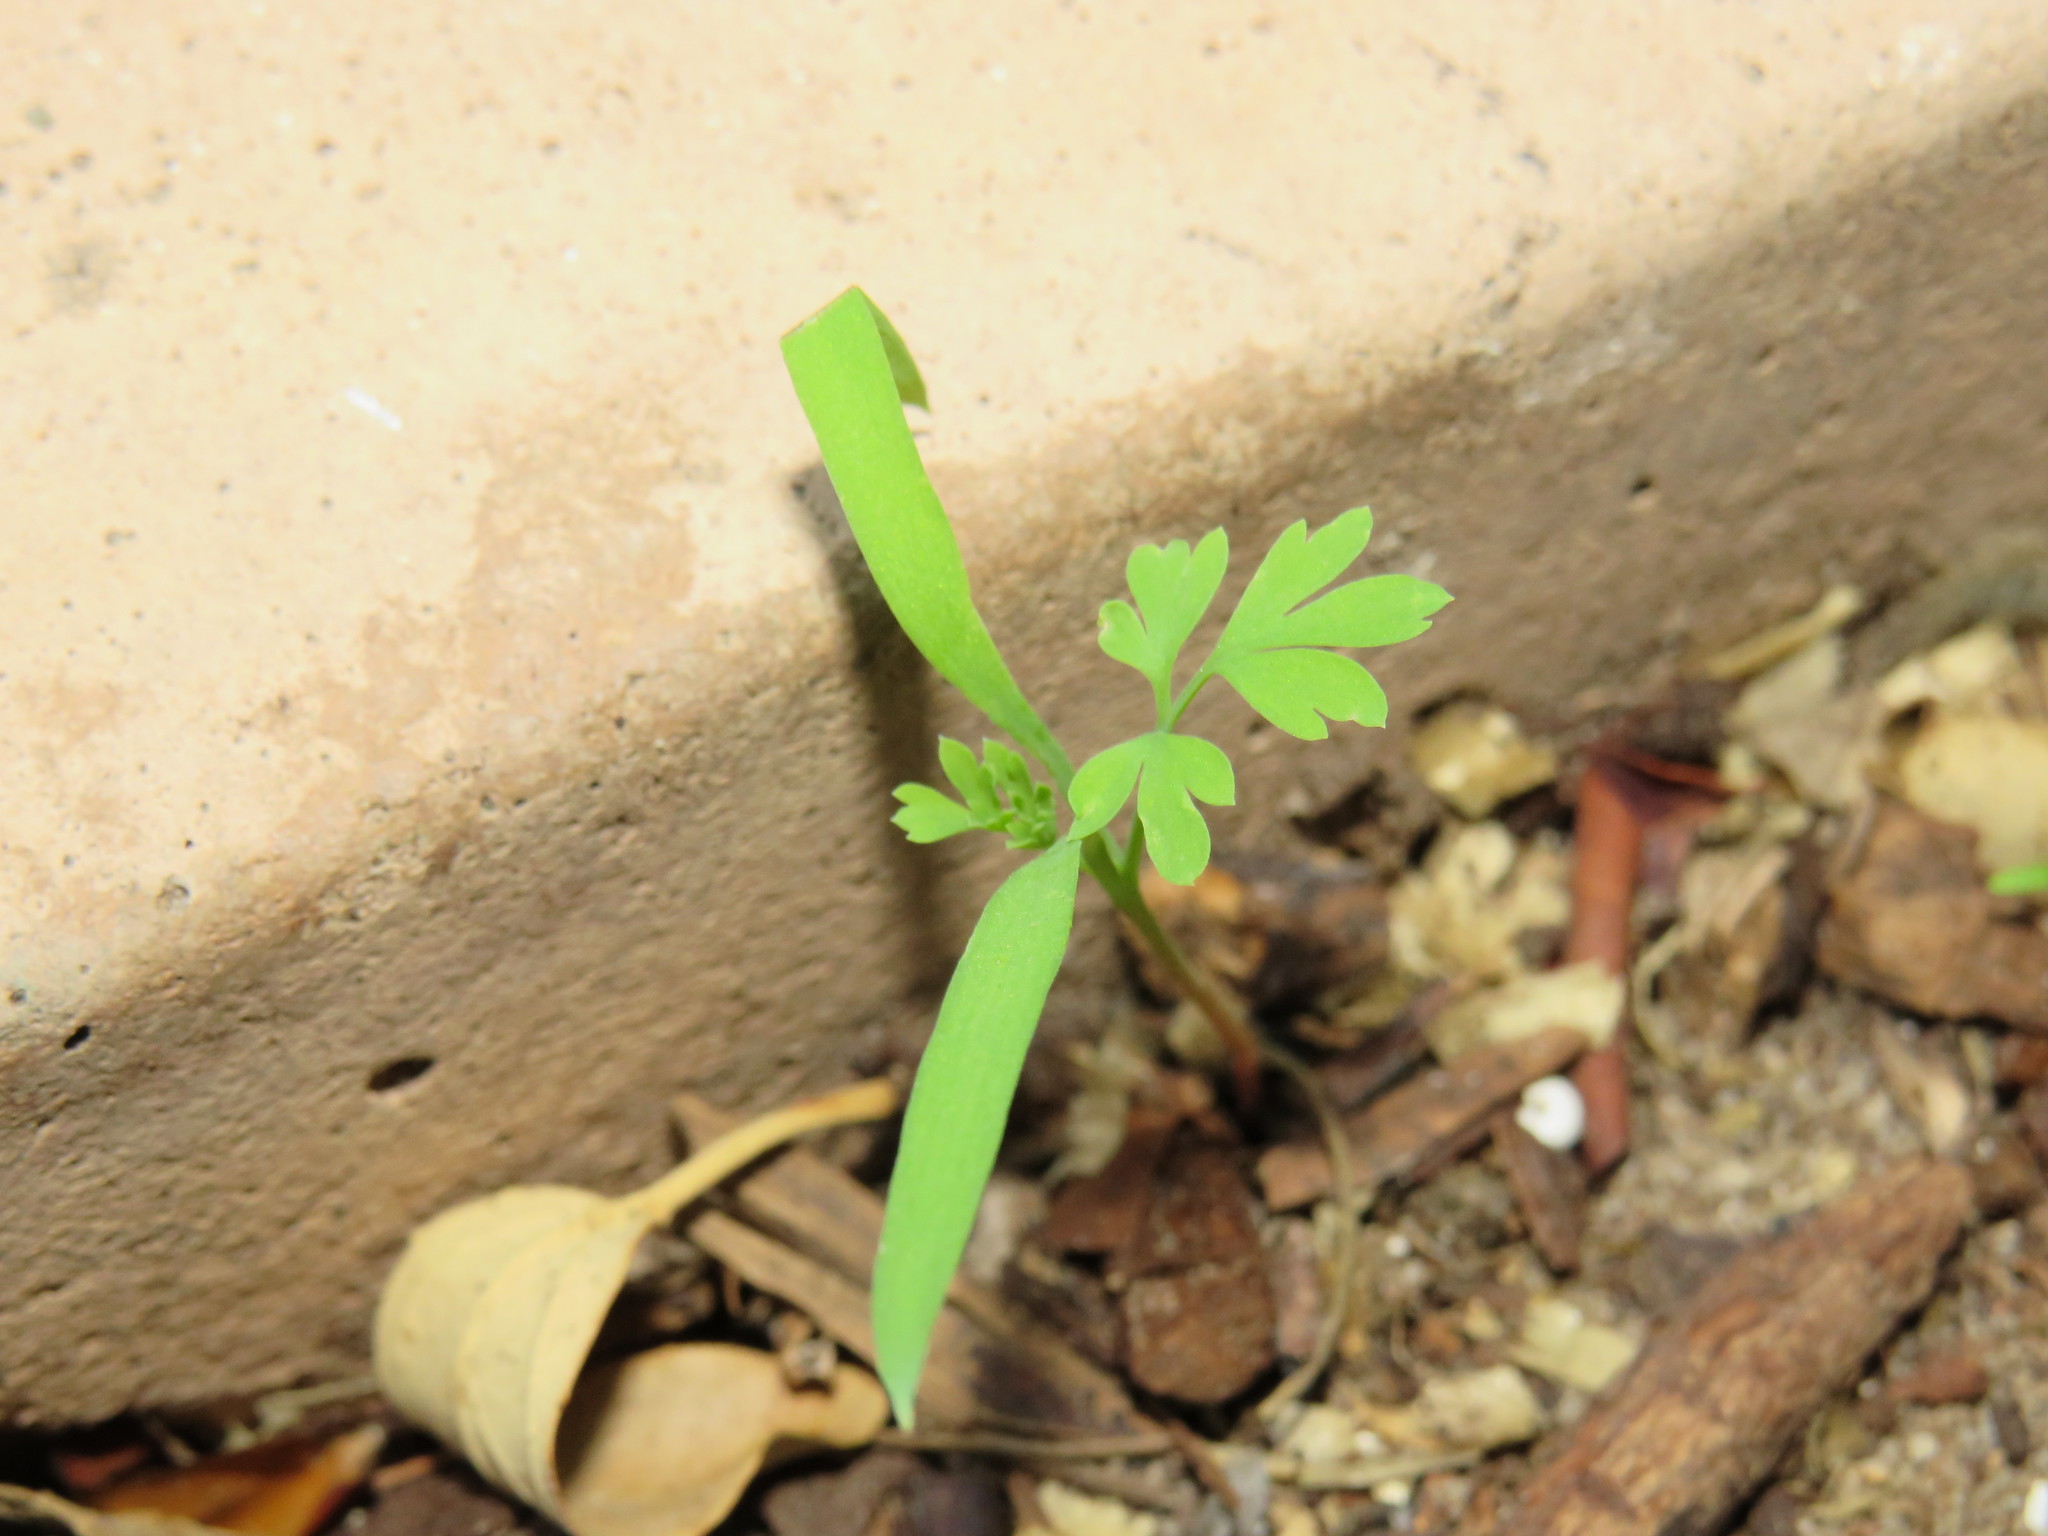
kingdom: Plantae
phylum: Tracheophyta
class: Magnoliopsida
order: Ranunculales
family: Papaveraceae
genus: Fumaria
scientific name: Fumaria muralis
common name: Common ramping-fumitory
